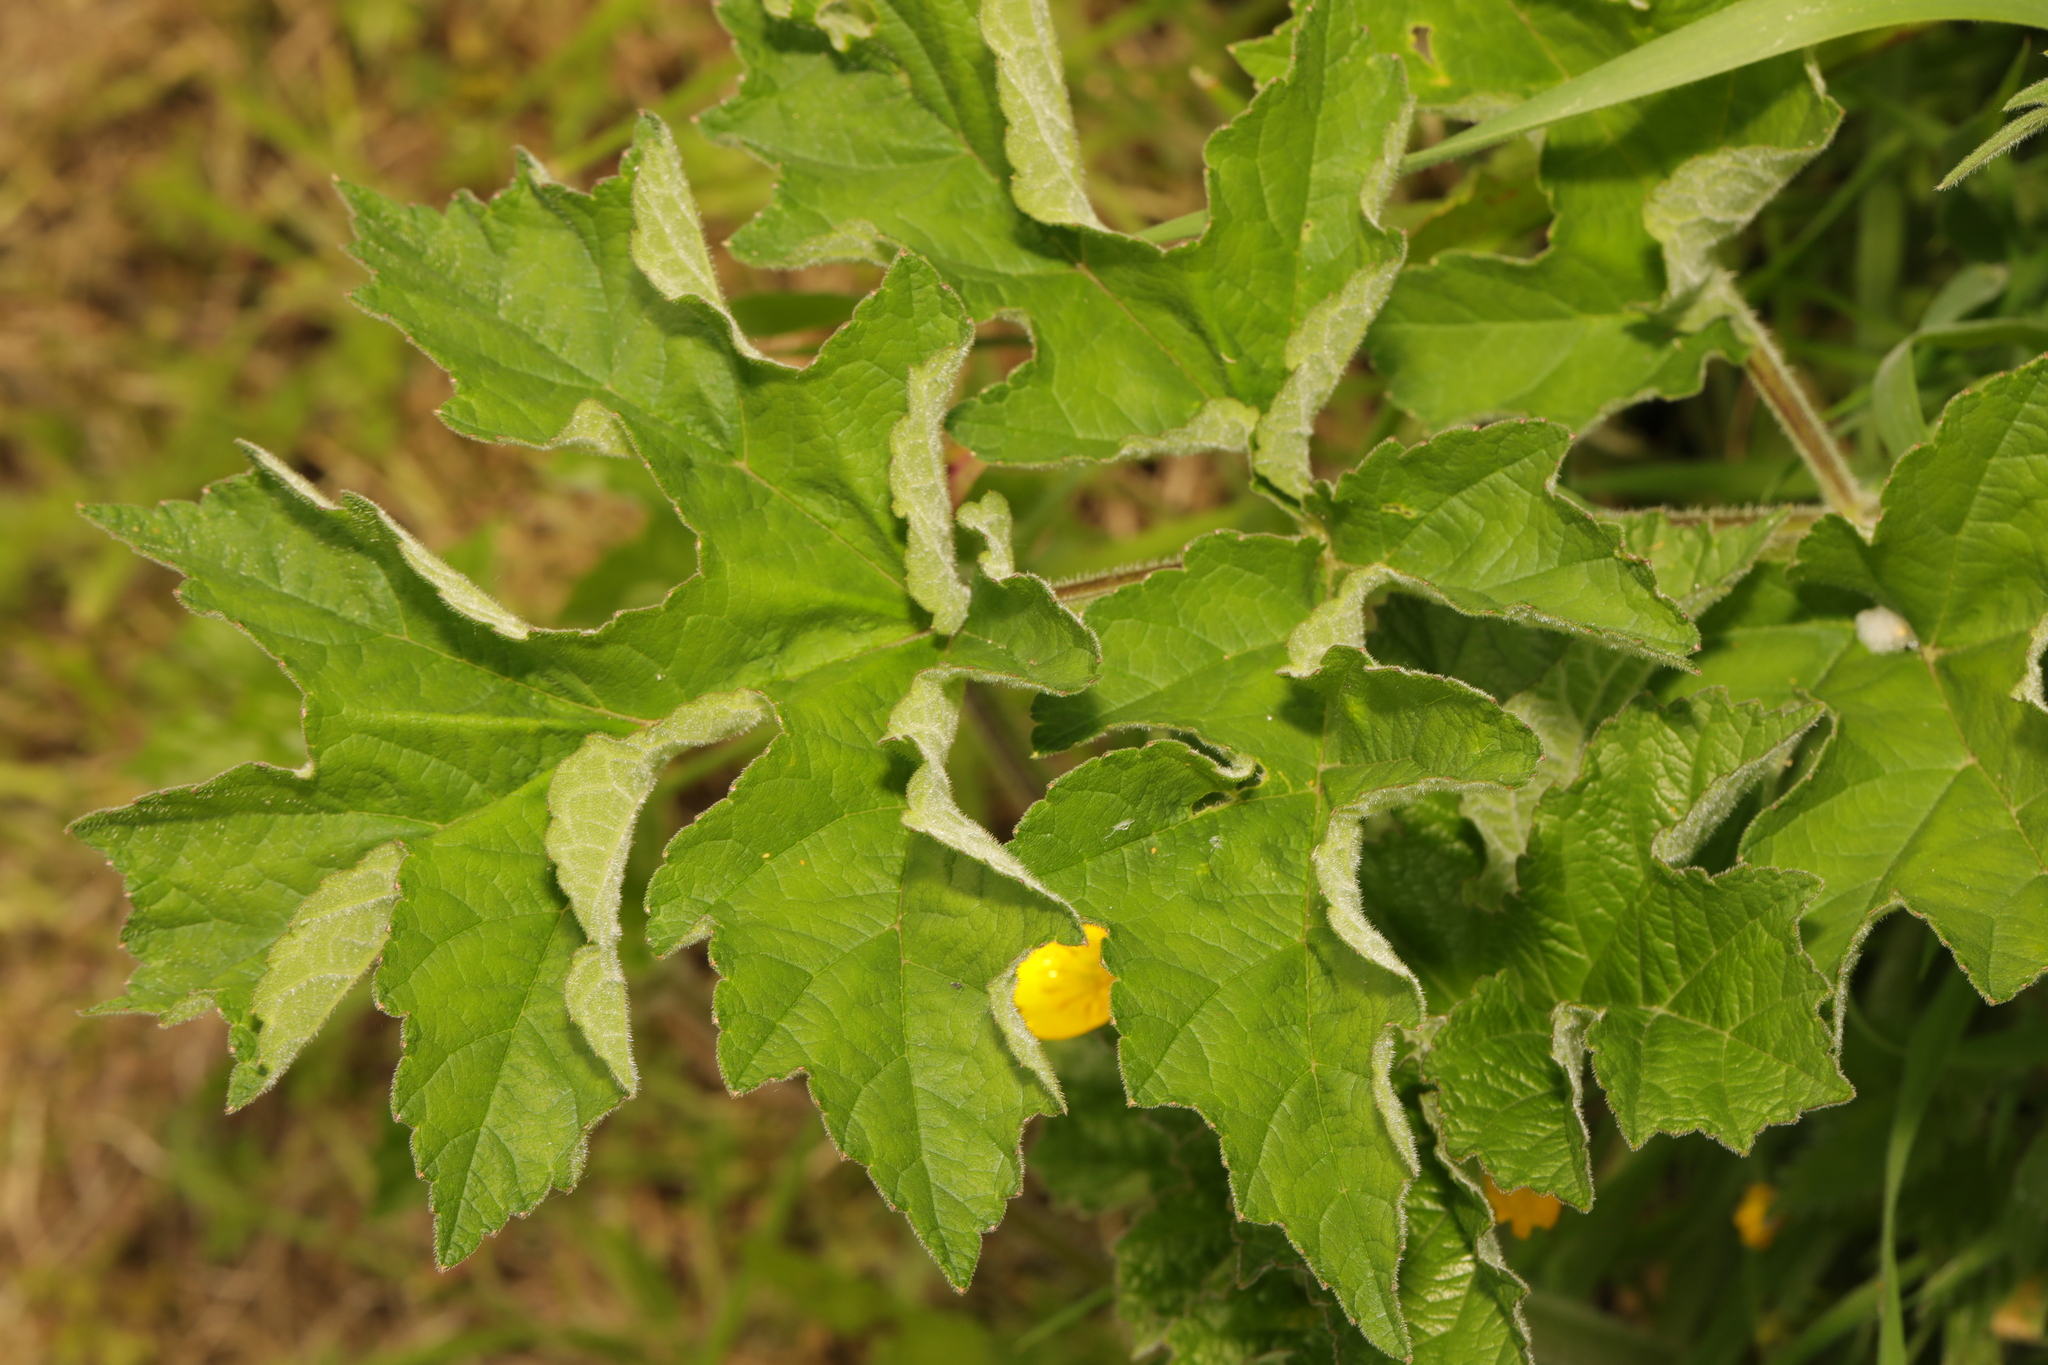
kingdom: Plantae
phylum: Tracheophyta
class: Magnoliopsida
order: Apiales
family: Apiaceae
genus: Heracleum
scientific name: Heracleum sphondylium
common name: Hogweed
